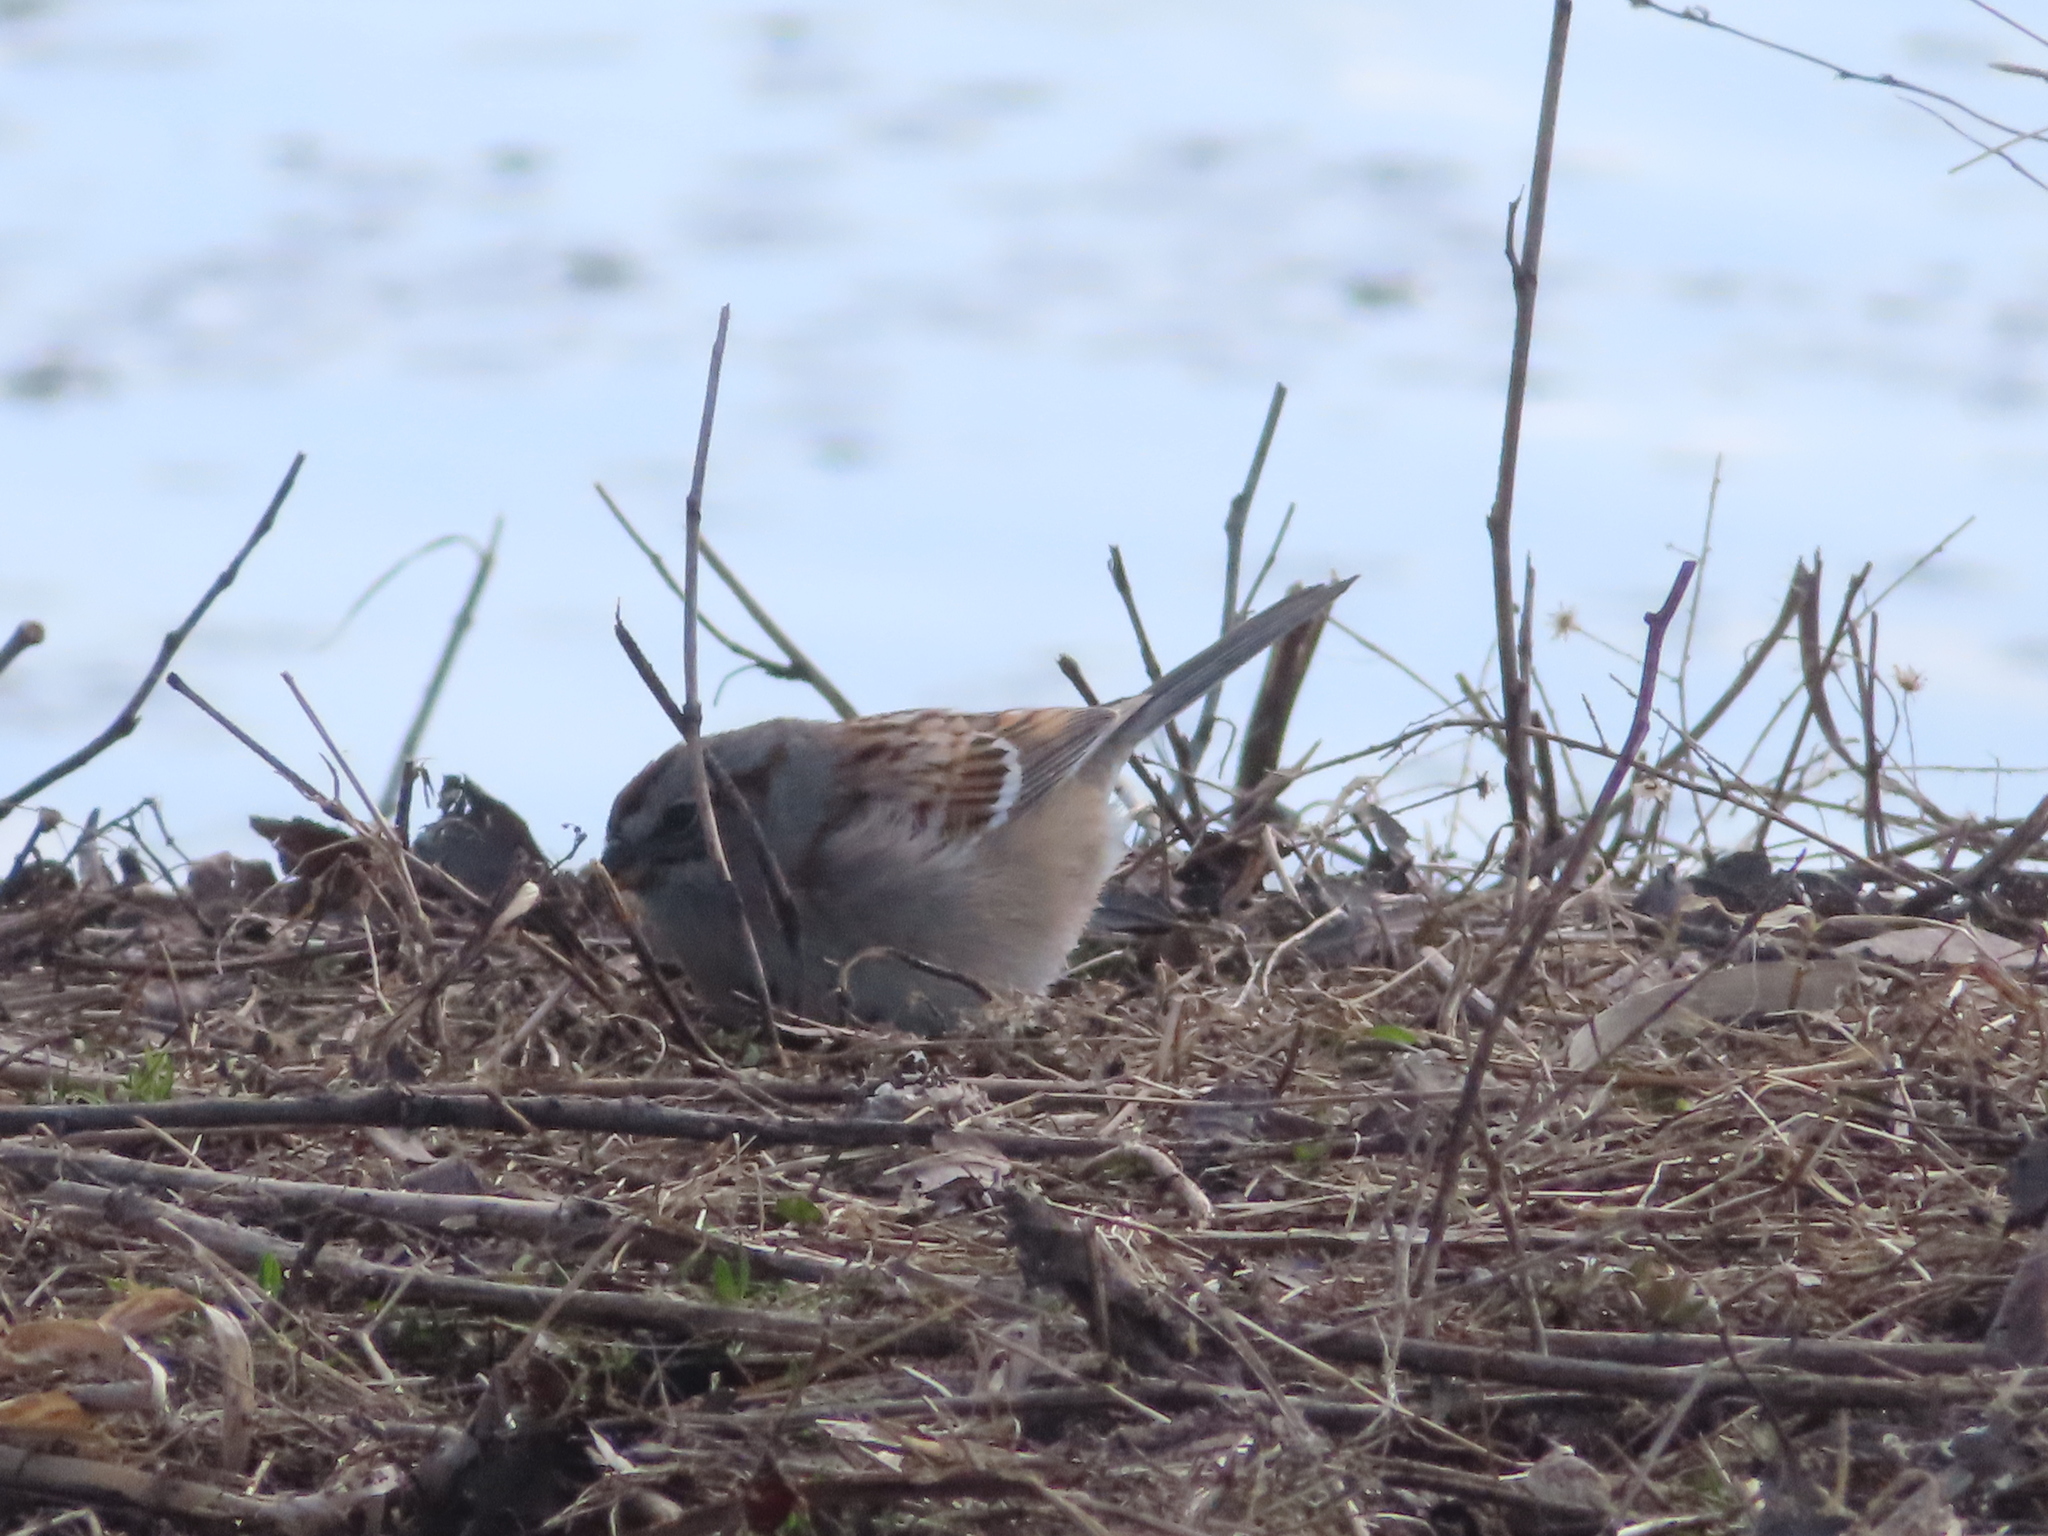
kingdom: Animalia
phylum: Chordata
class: Aves
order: Passeriformes
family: Passerellidae
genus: Spizelloides
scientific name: Spizelloides arborea
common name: American tree sparrow
